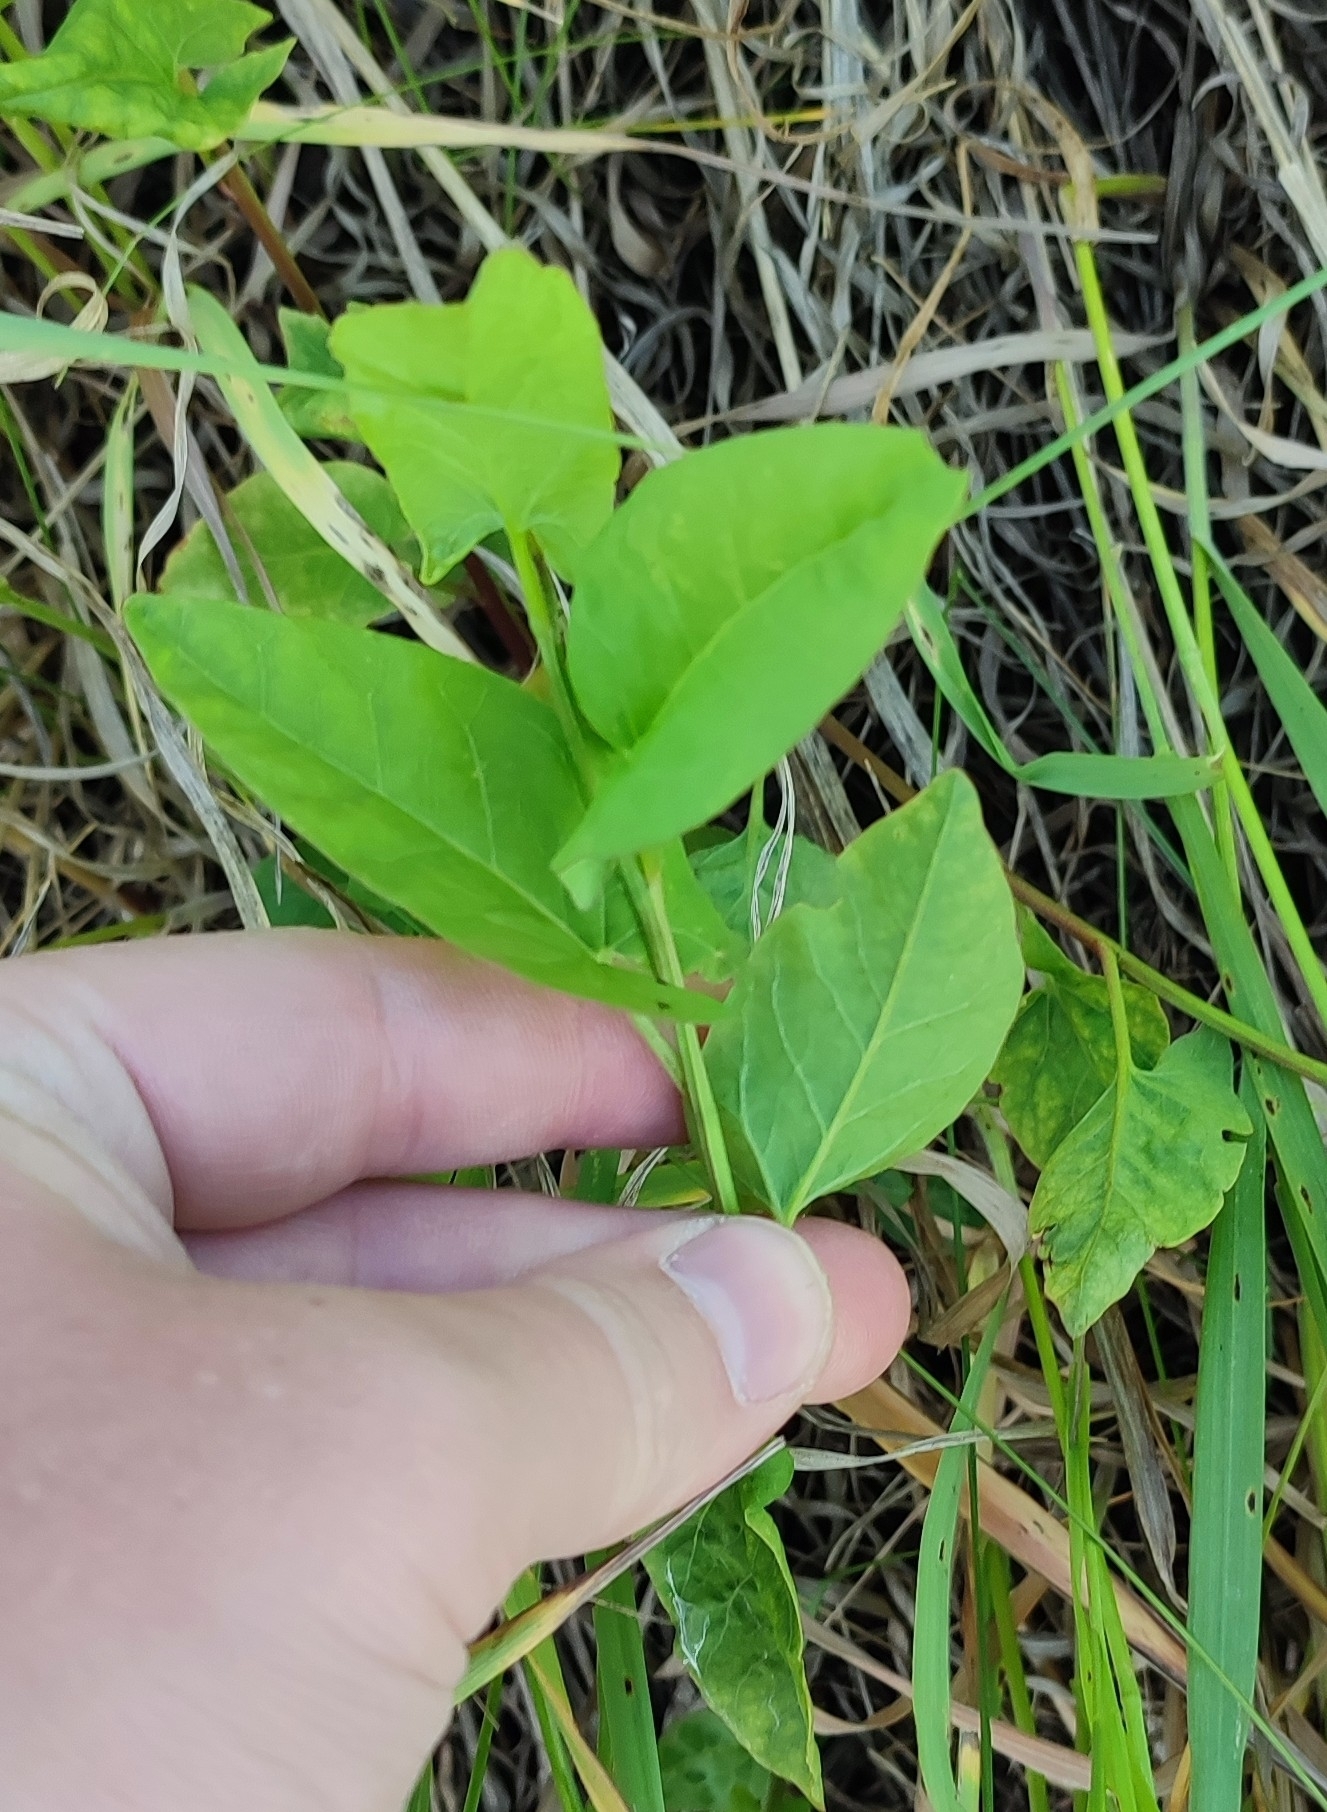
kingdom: Plantae
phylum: Tracheophyta
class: Magnoliopsida
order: Solanales
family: Convolvulaceae
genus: Convolvulus
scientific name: Convolvulus arvensis
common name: Field bindweed
